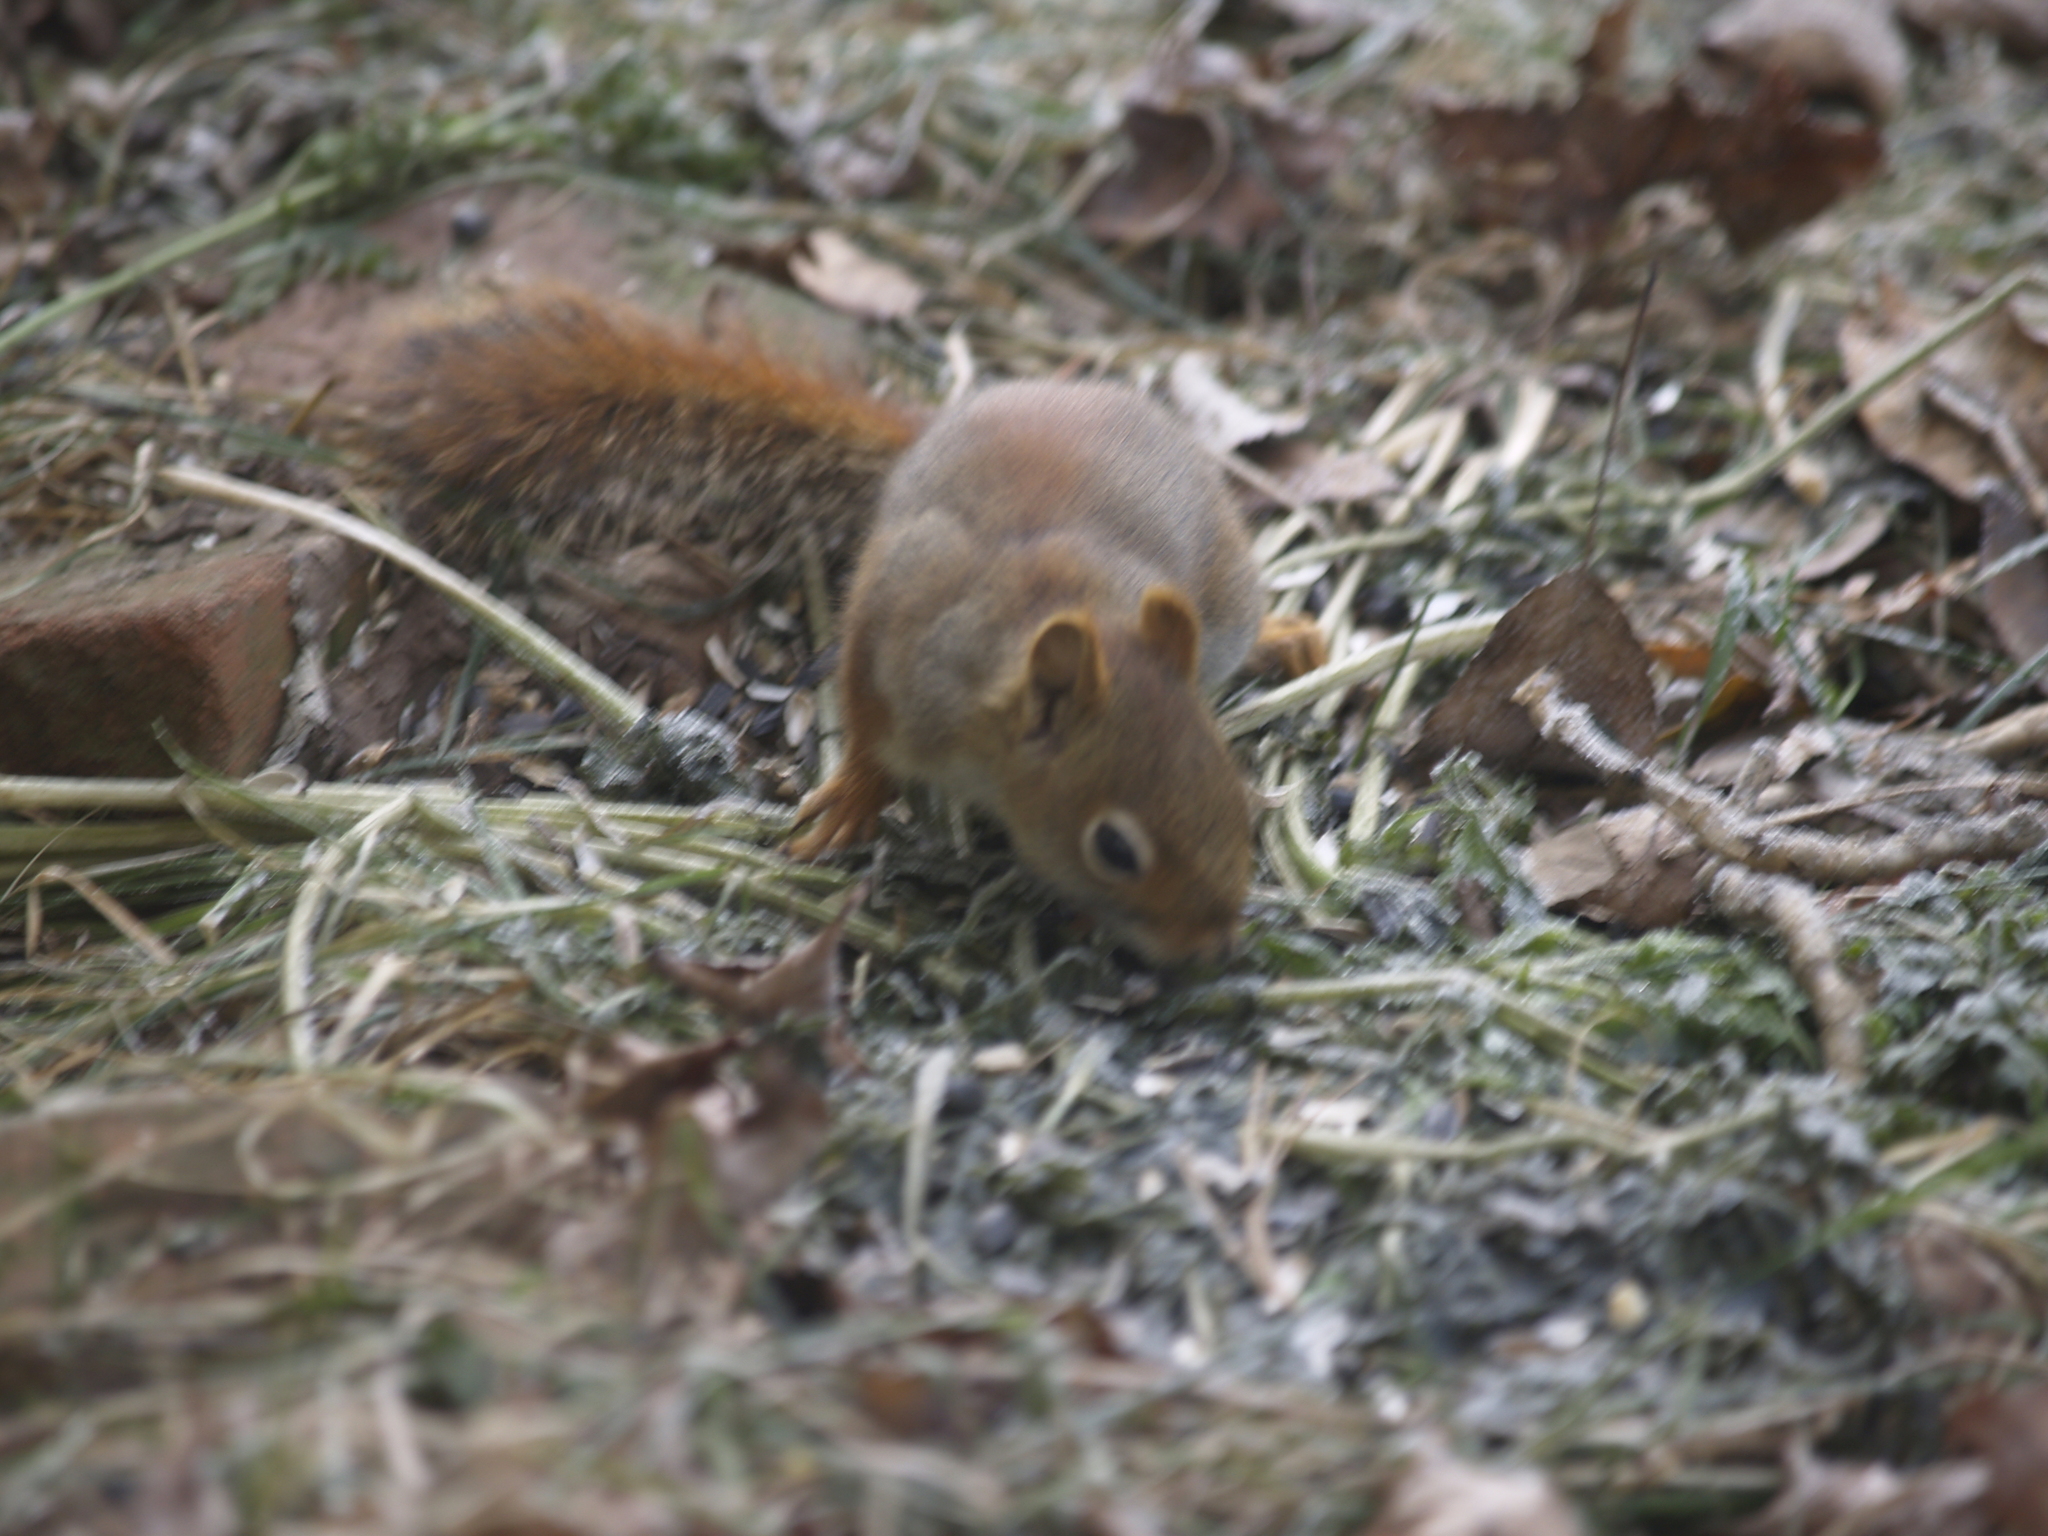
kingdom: Animalia
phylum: Chordata
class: Mammalia
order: Rodentia
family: Sciuridae
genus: Tamiasciurus
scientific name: Tamiasciurus hudsonicus
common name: Red squirrel
